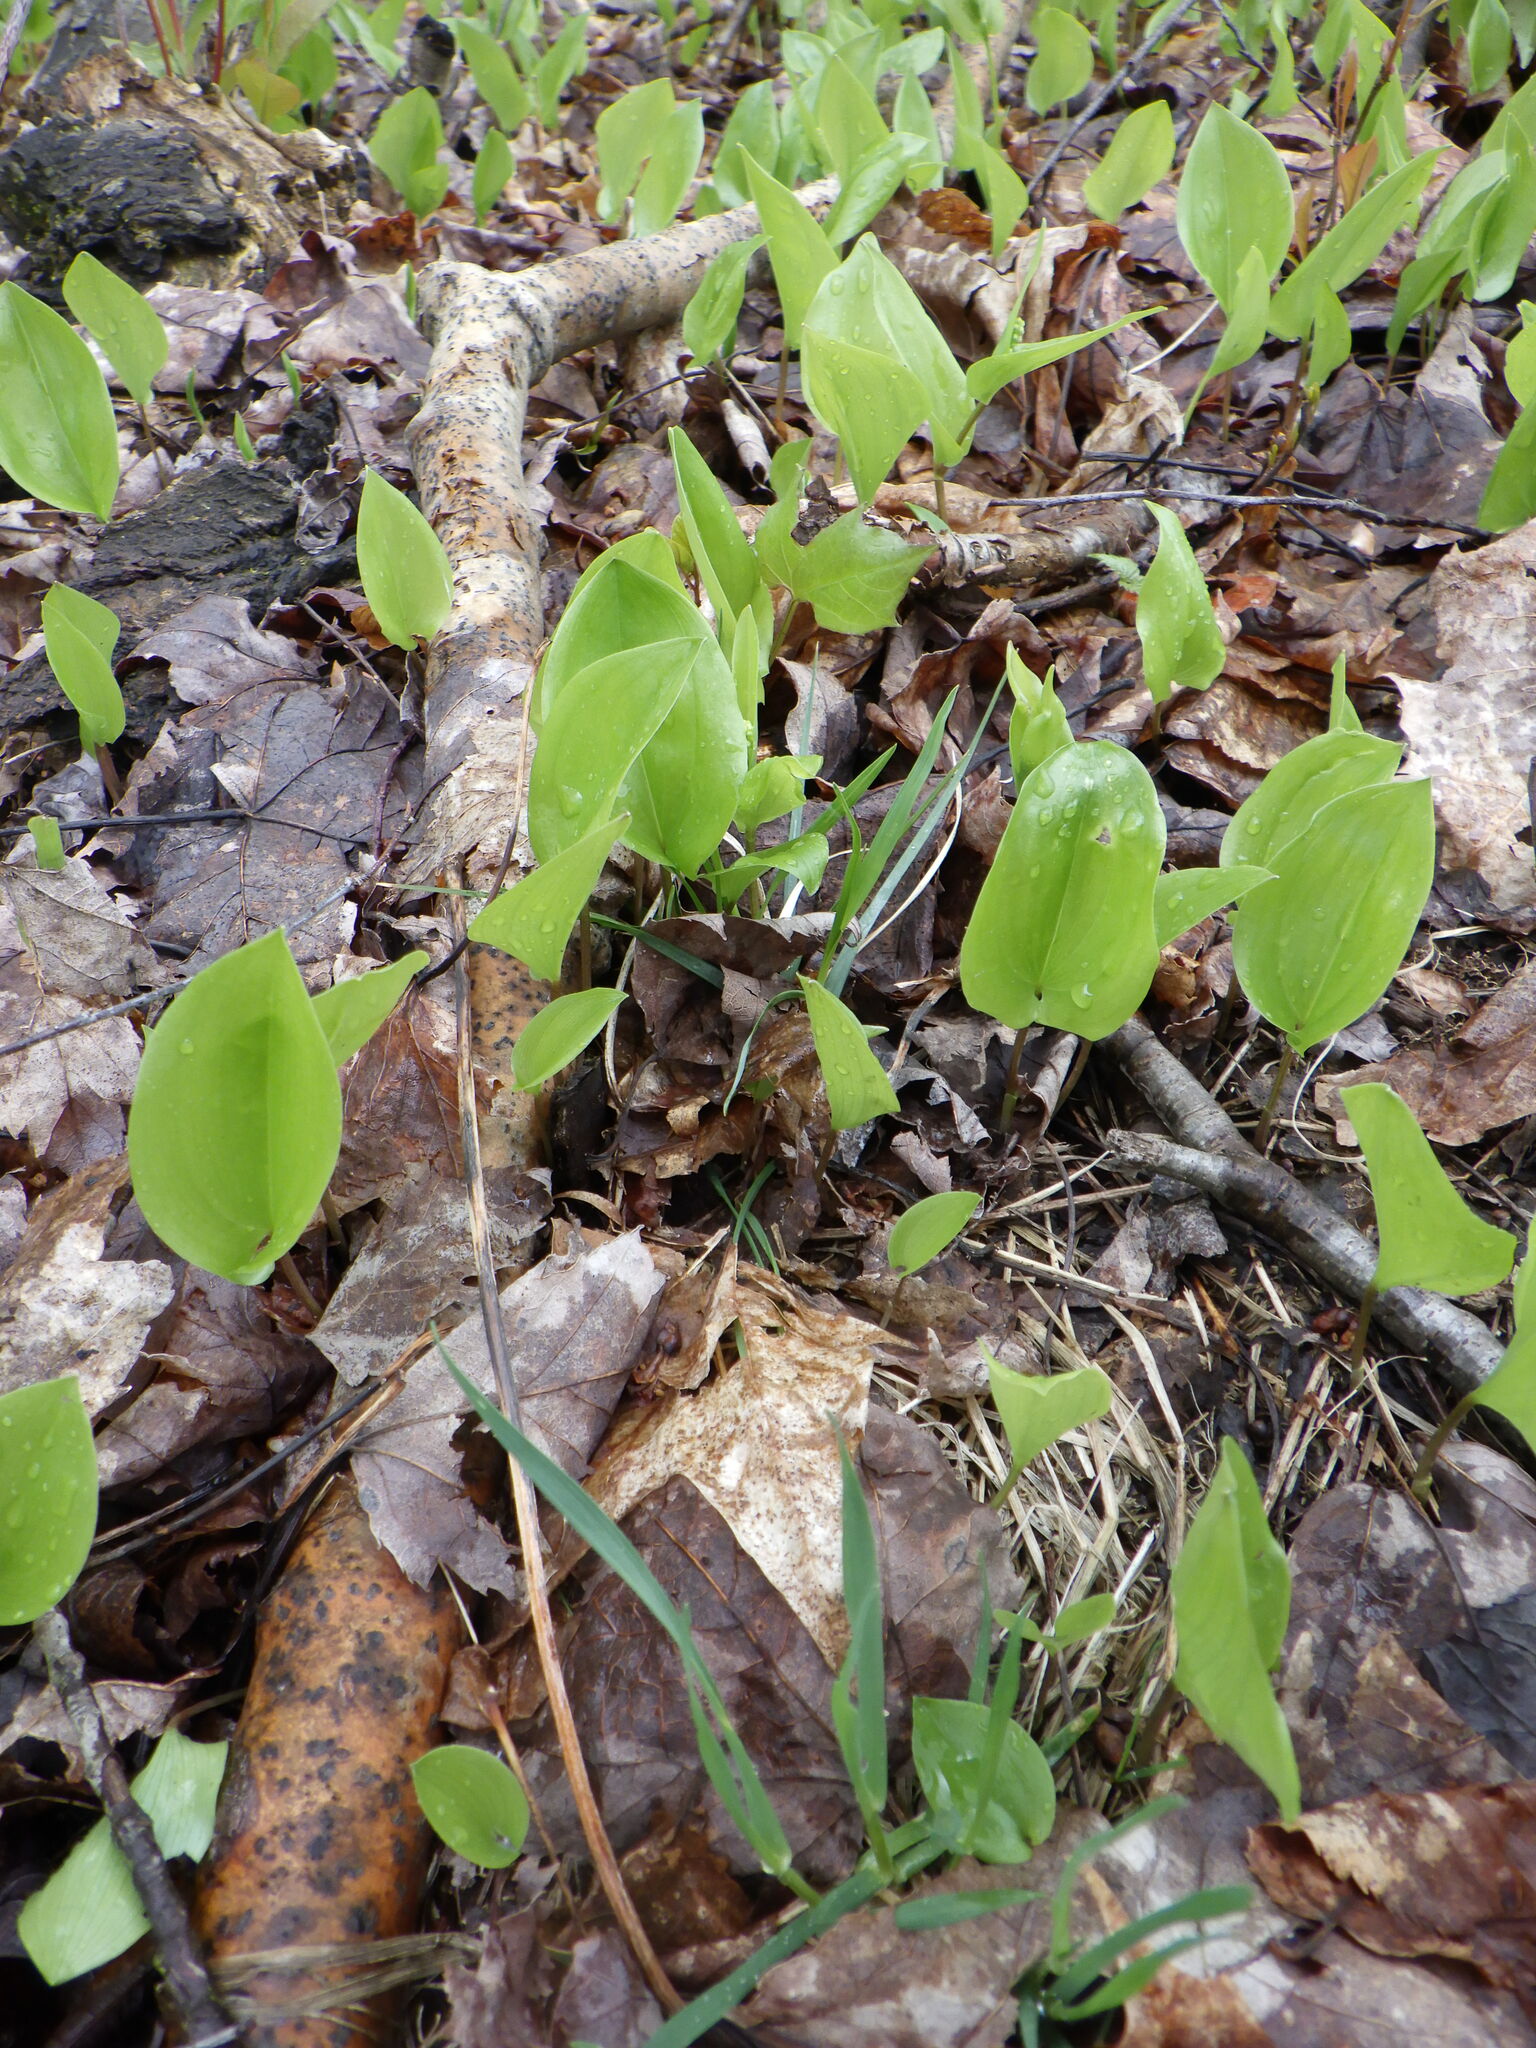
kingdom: Plantae
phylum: Tracheophyta
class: Liliopsida
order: Asparagales
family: Asparagaceae
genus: Maianthemum
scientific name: Maianthemum canadense
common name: False lily-of-the-valley
